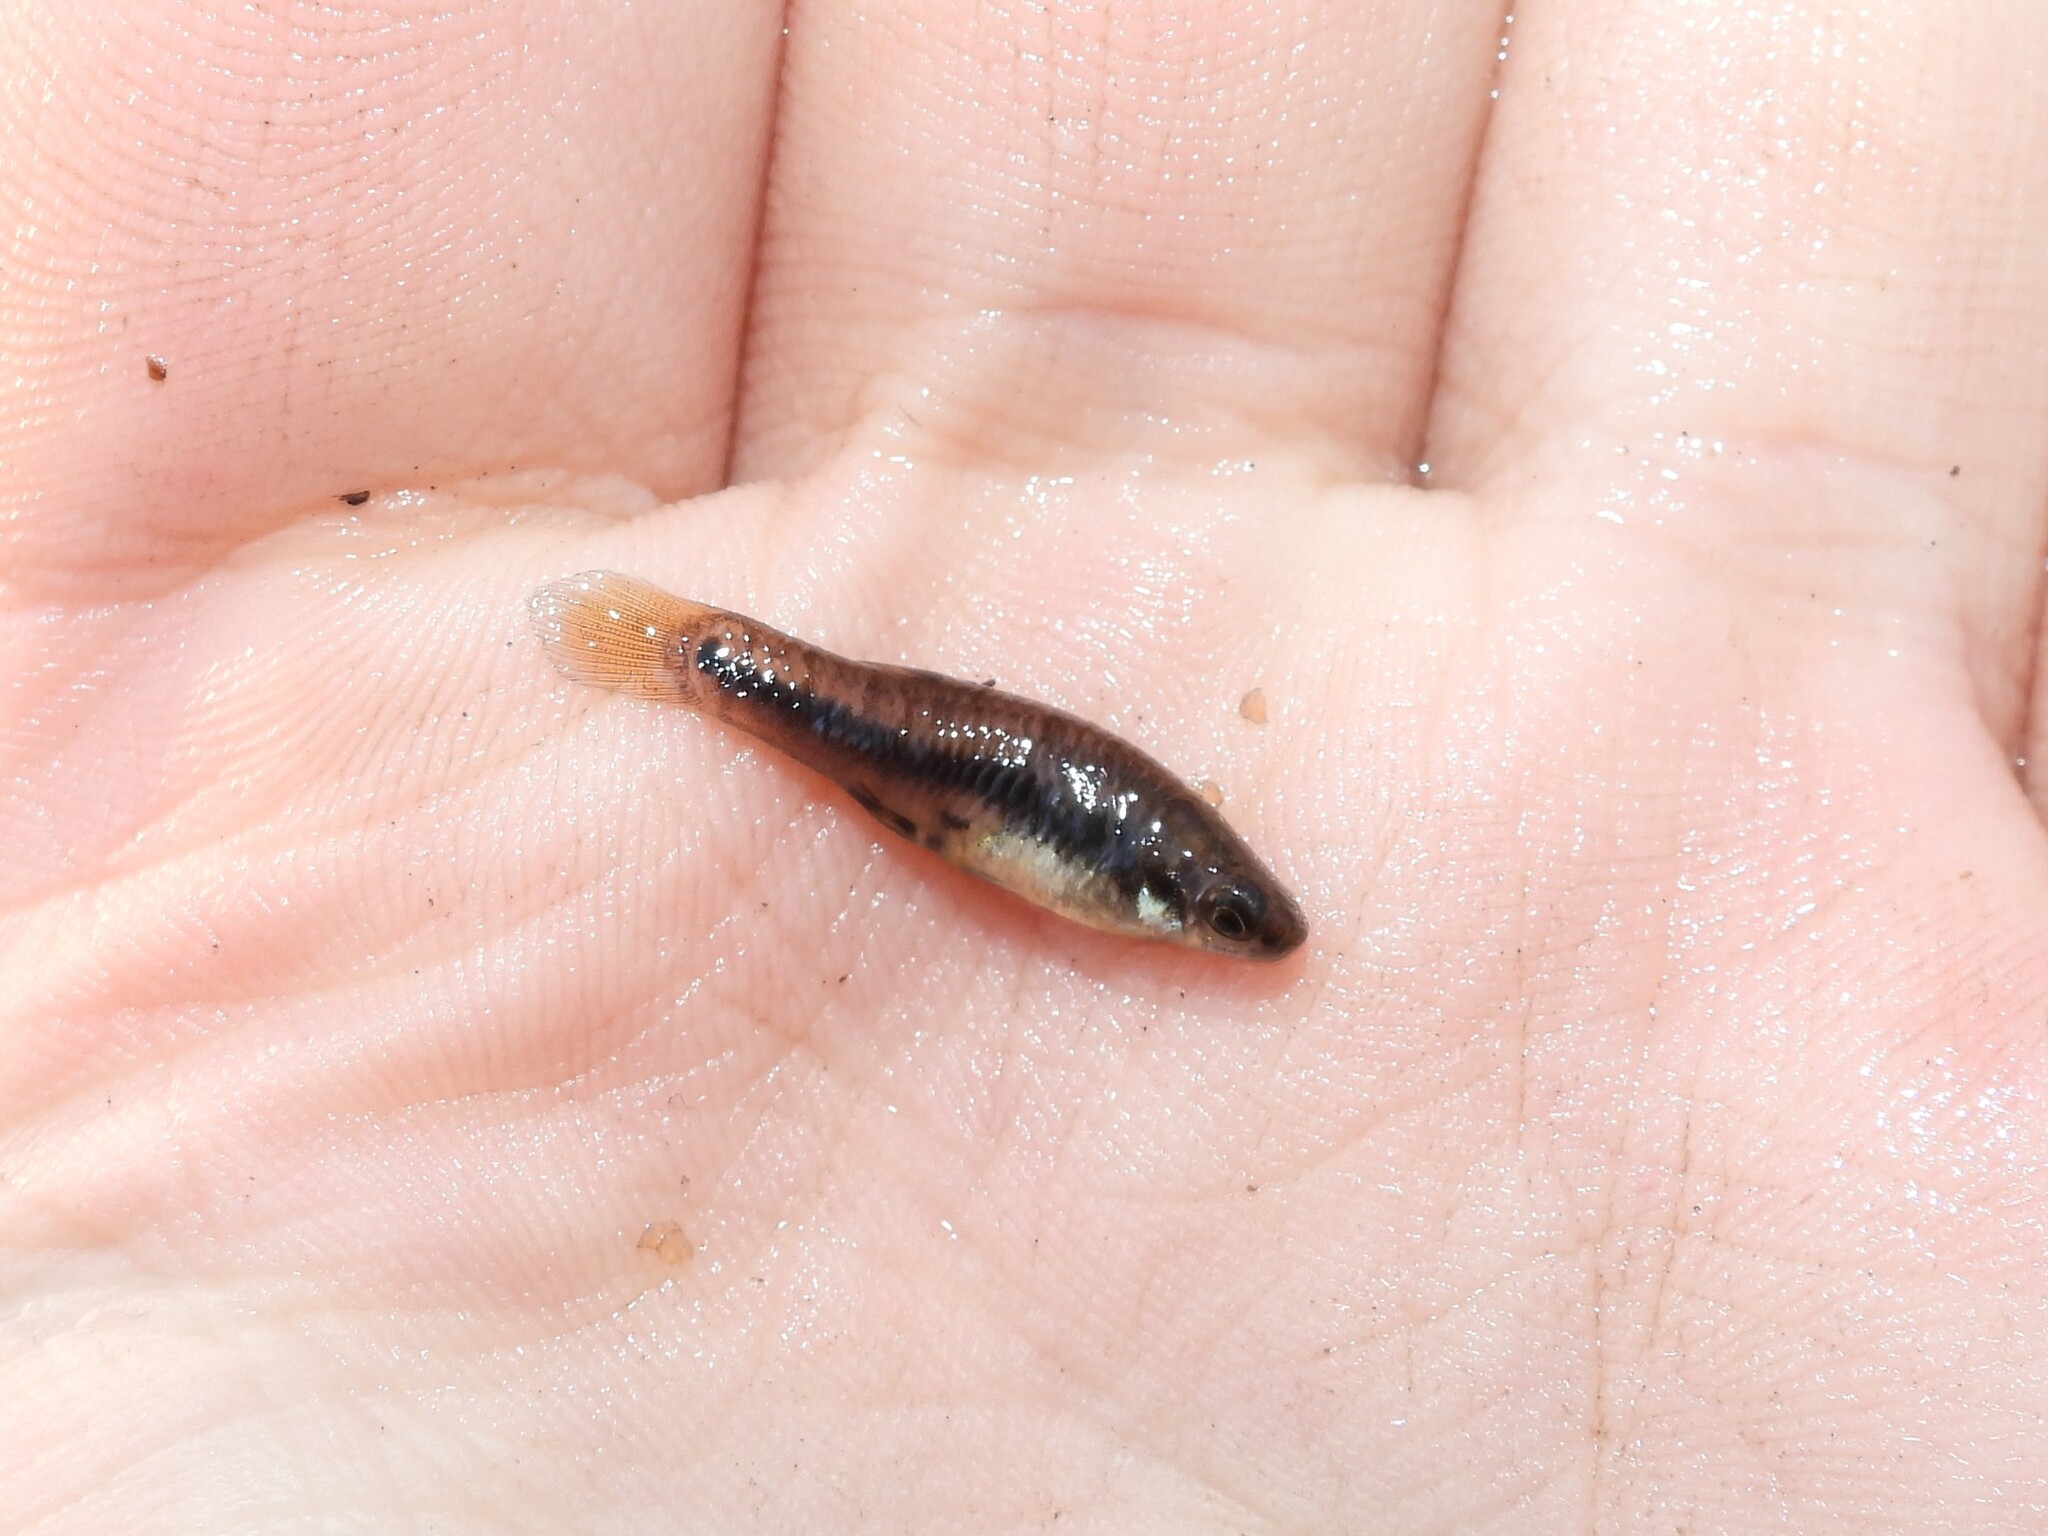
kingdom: Animalia
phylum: Chordata
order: Cyprinodontiformes
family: Poeciliidae
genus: Heterandria
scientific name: Heterandria formosa
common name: Least killifish
